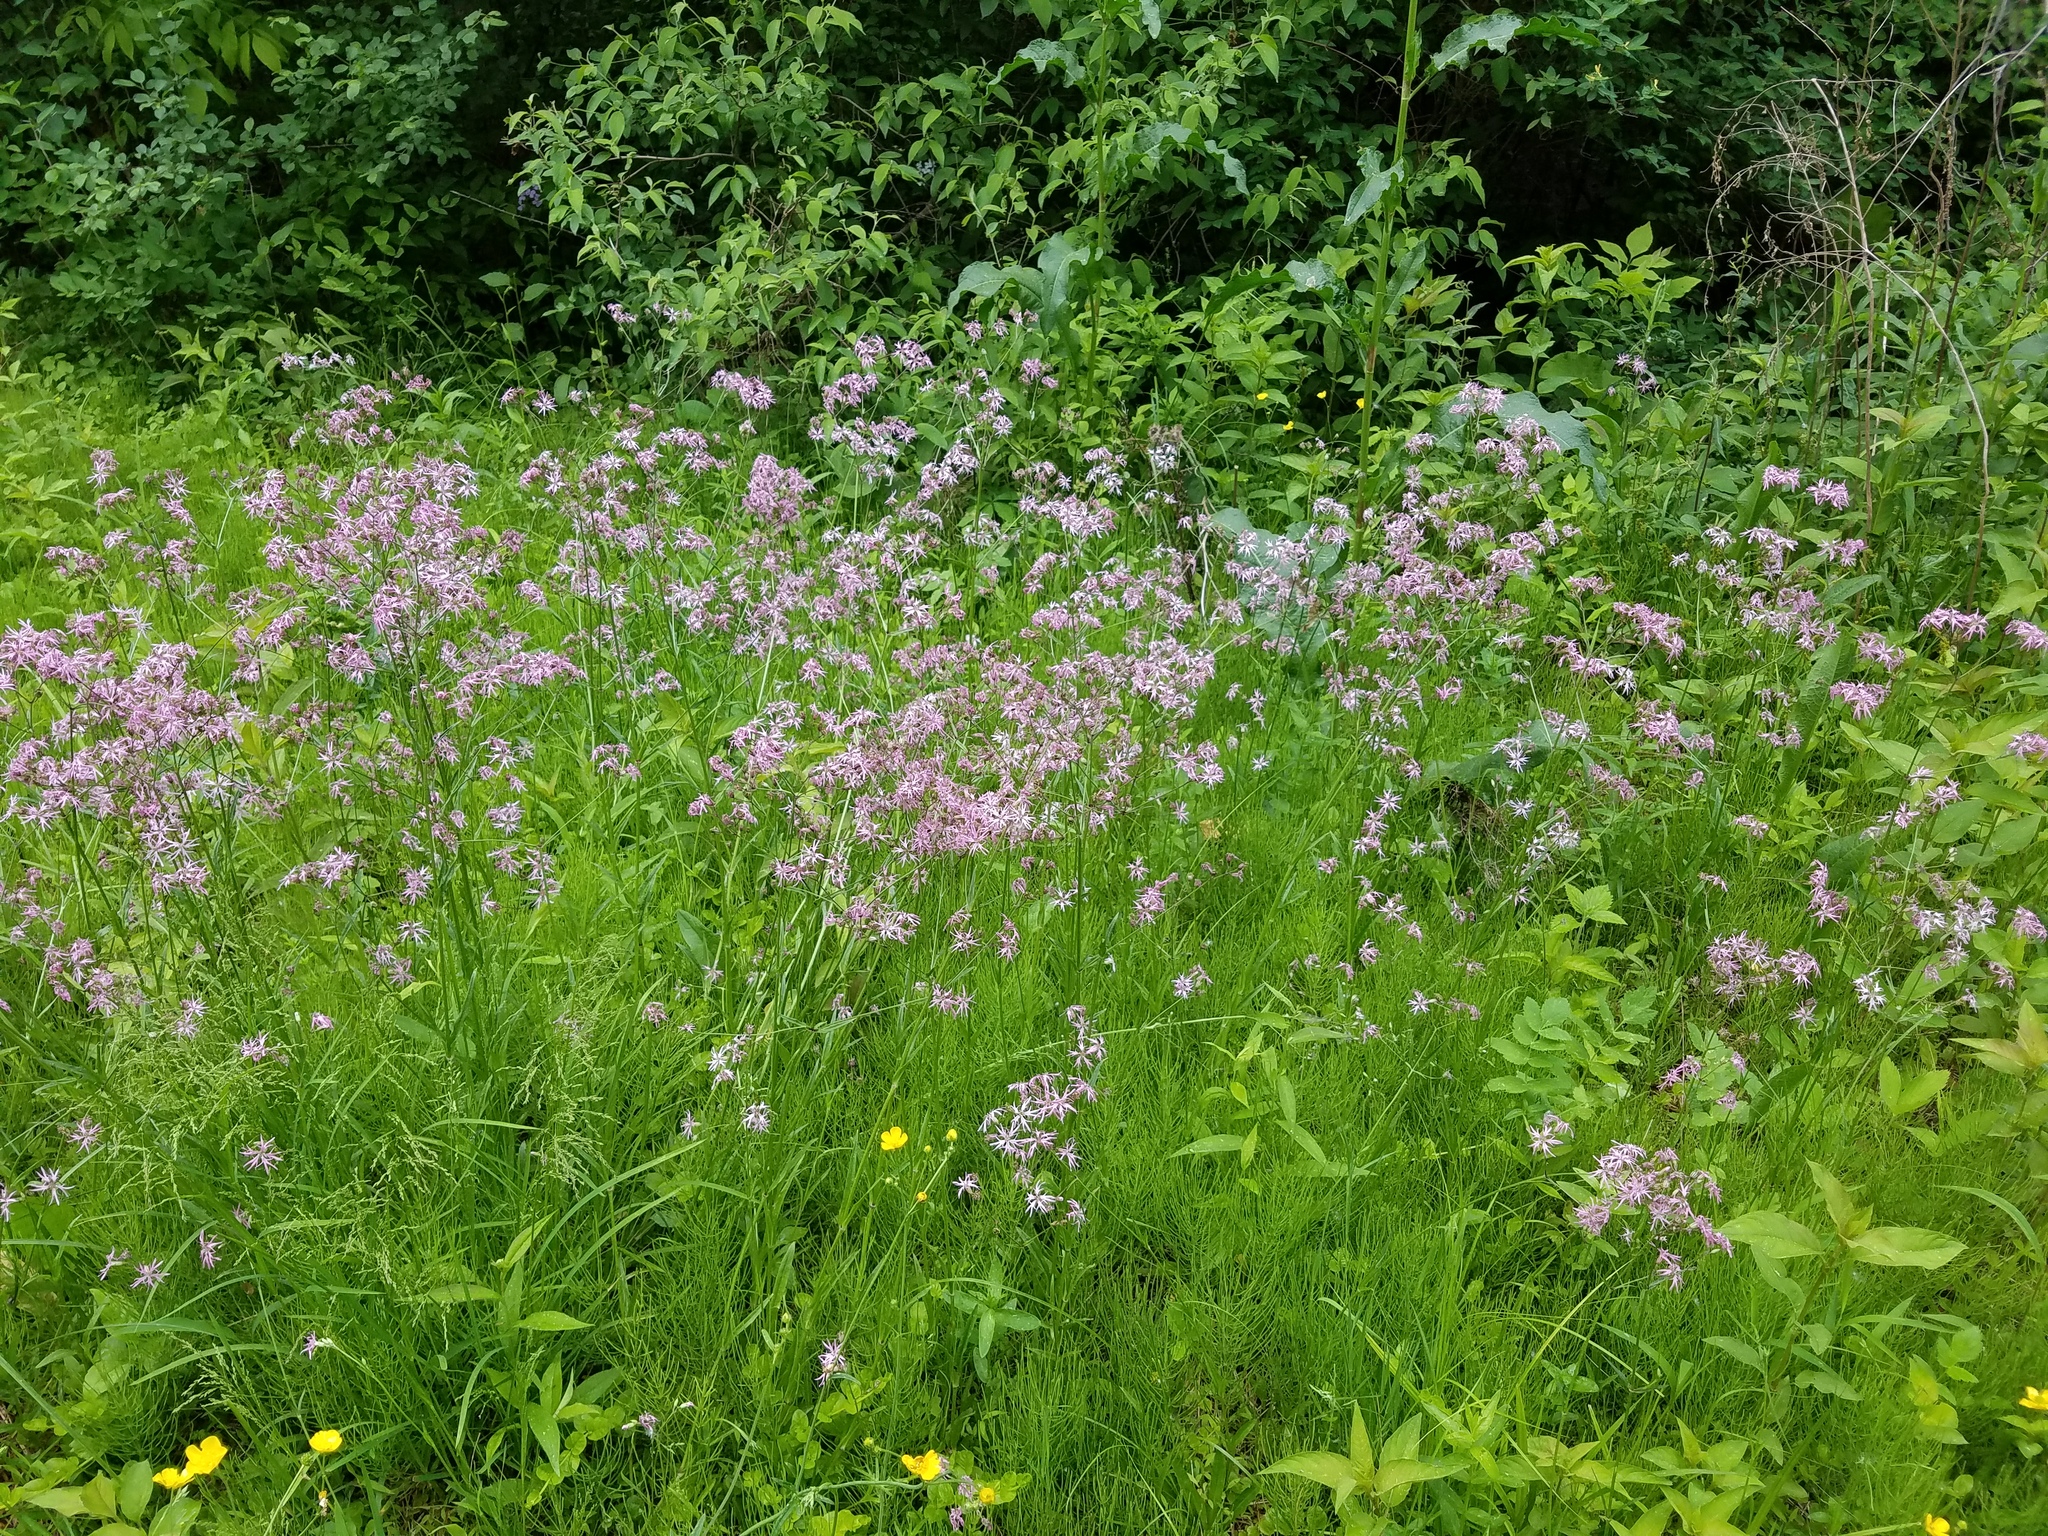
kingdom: Plantae
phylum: Tracheophyta
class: Magnoliopsida
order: Caryophyllales
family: Caryophyllaceae
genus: Silene
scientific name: Silene flos-cuculi
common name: Ragged-robin
